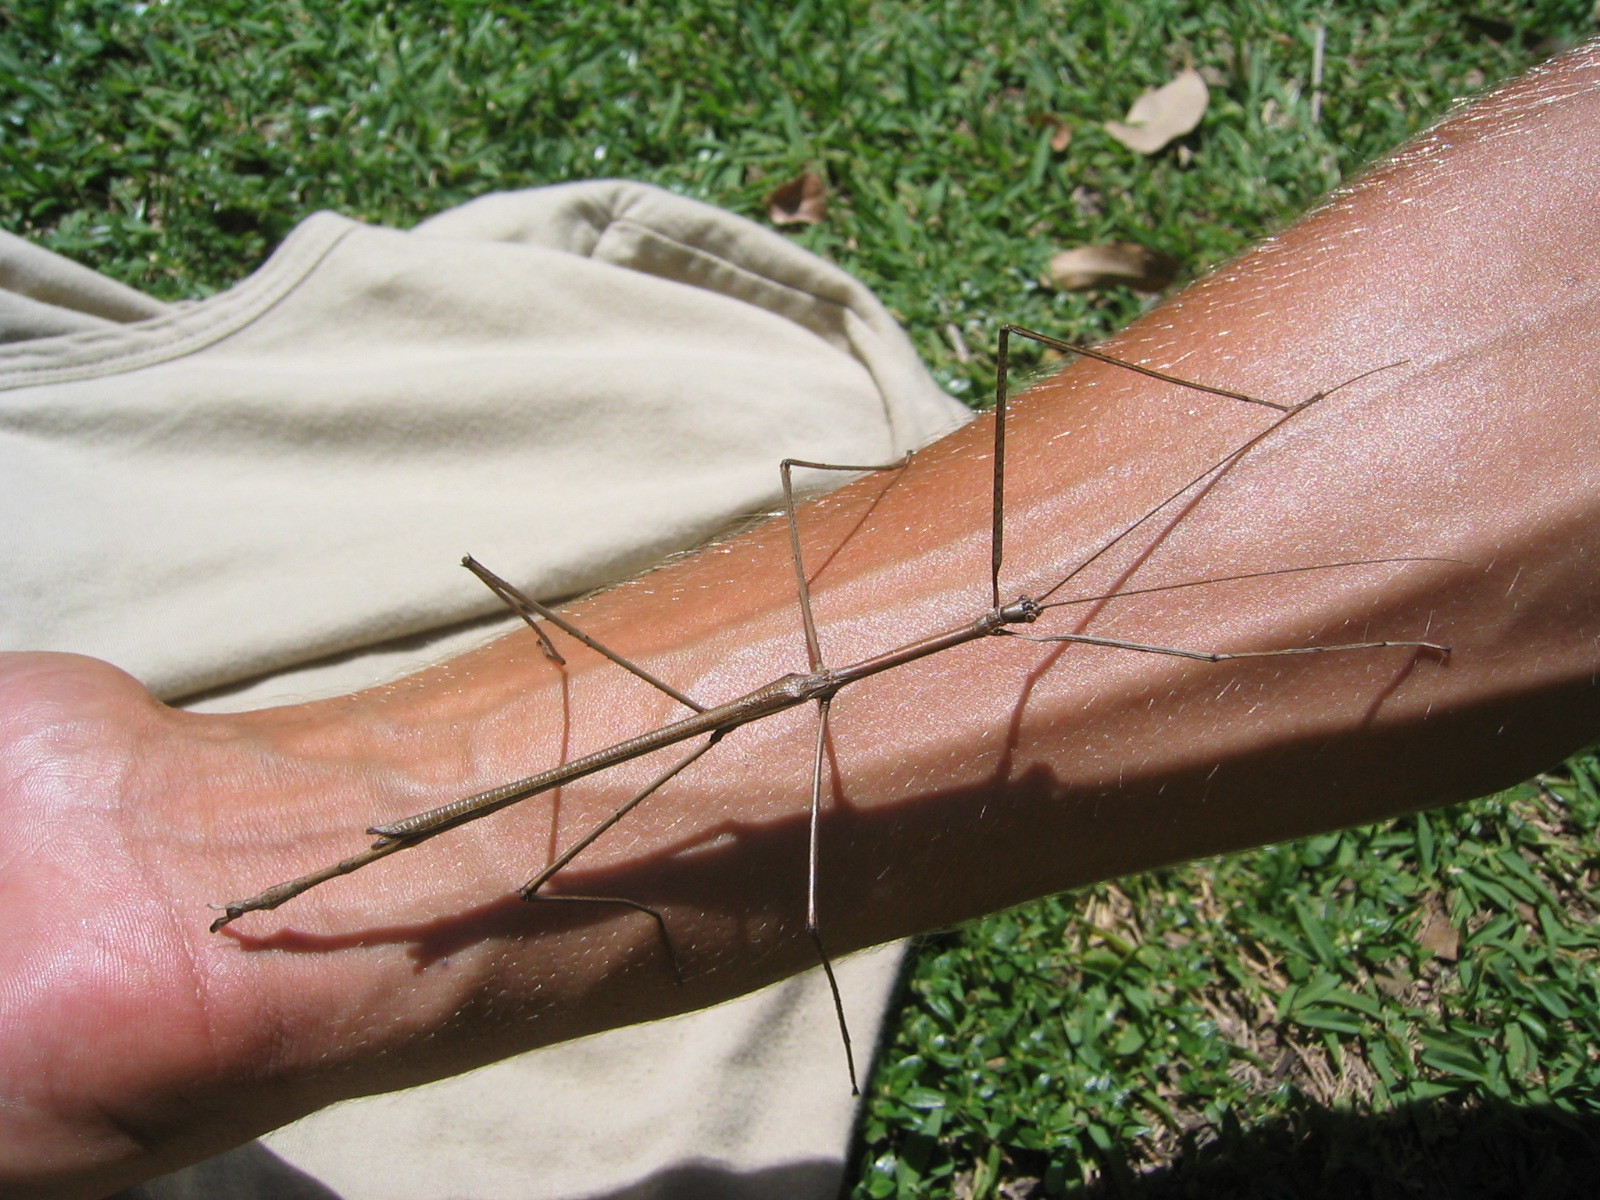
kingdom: Animalia
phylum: Arthropoda
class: Insecta
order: Phasmida
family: Phasmatidae
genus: Ctenomorpha
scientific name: Ctenomorpha marginipennis
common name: Margined-winged stick-insect
